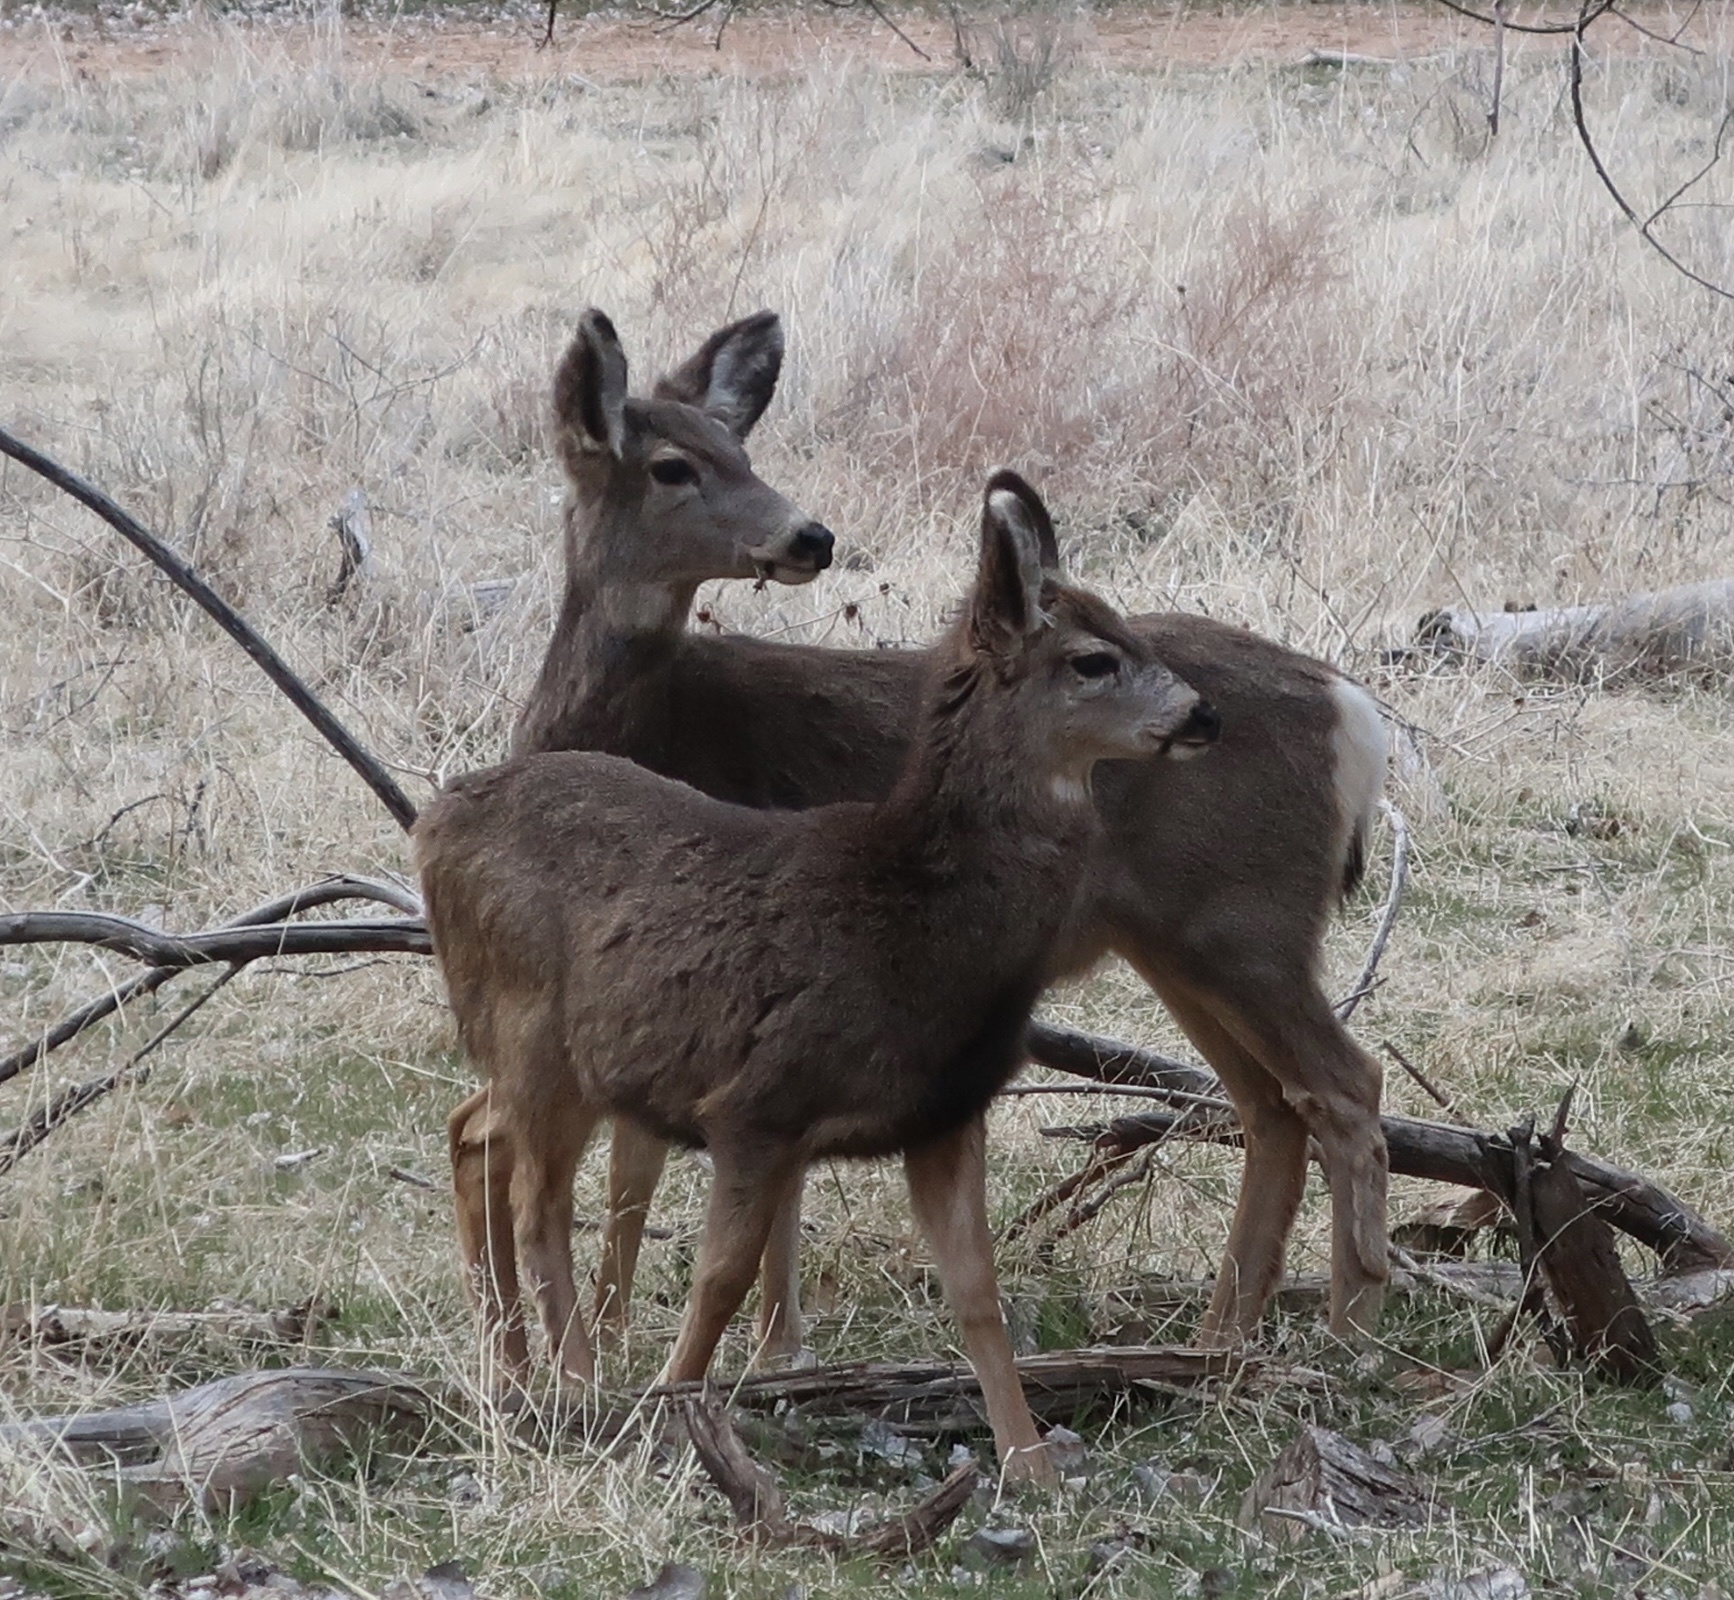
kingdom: Animalia
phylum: Chordata
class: Mammalia
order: Artiodactyla
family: Cervidae
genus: Odocoileus
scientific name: Odocoileus hemionus
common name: Mule deer
